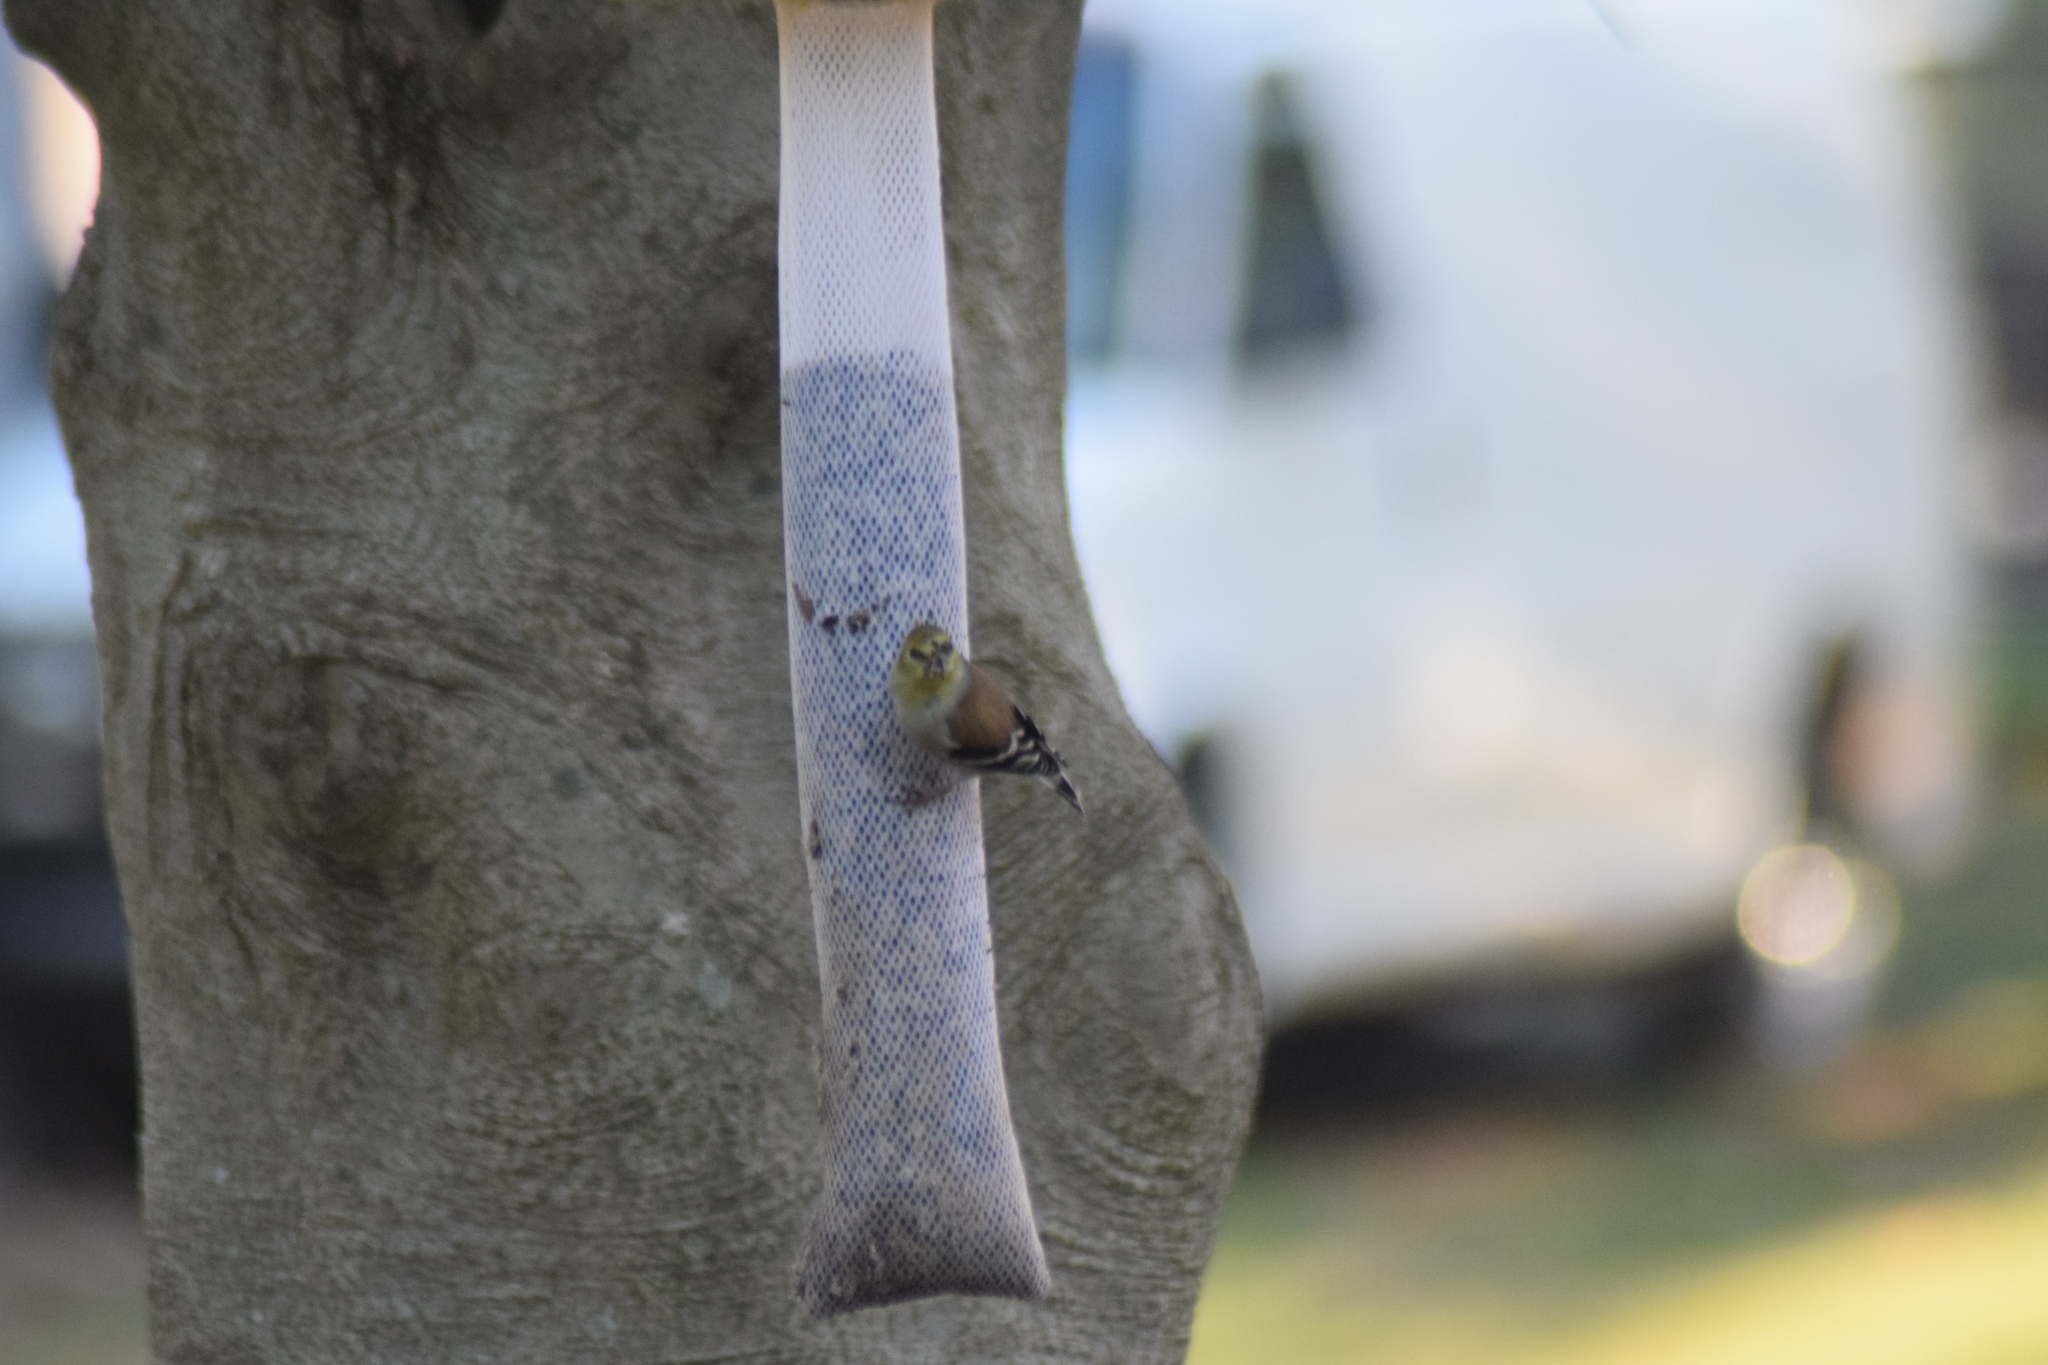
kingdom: Animalia
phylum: Chordata
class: Aves
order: Passeriformes
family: Fringillidae
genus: Spinus
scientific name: Spinus tristis
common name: American goldfinch
